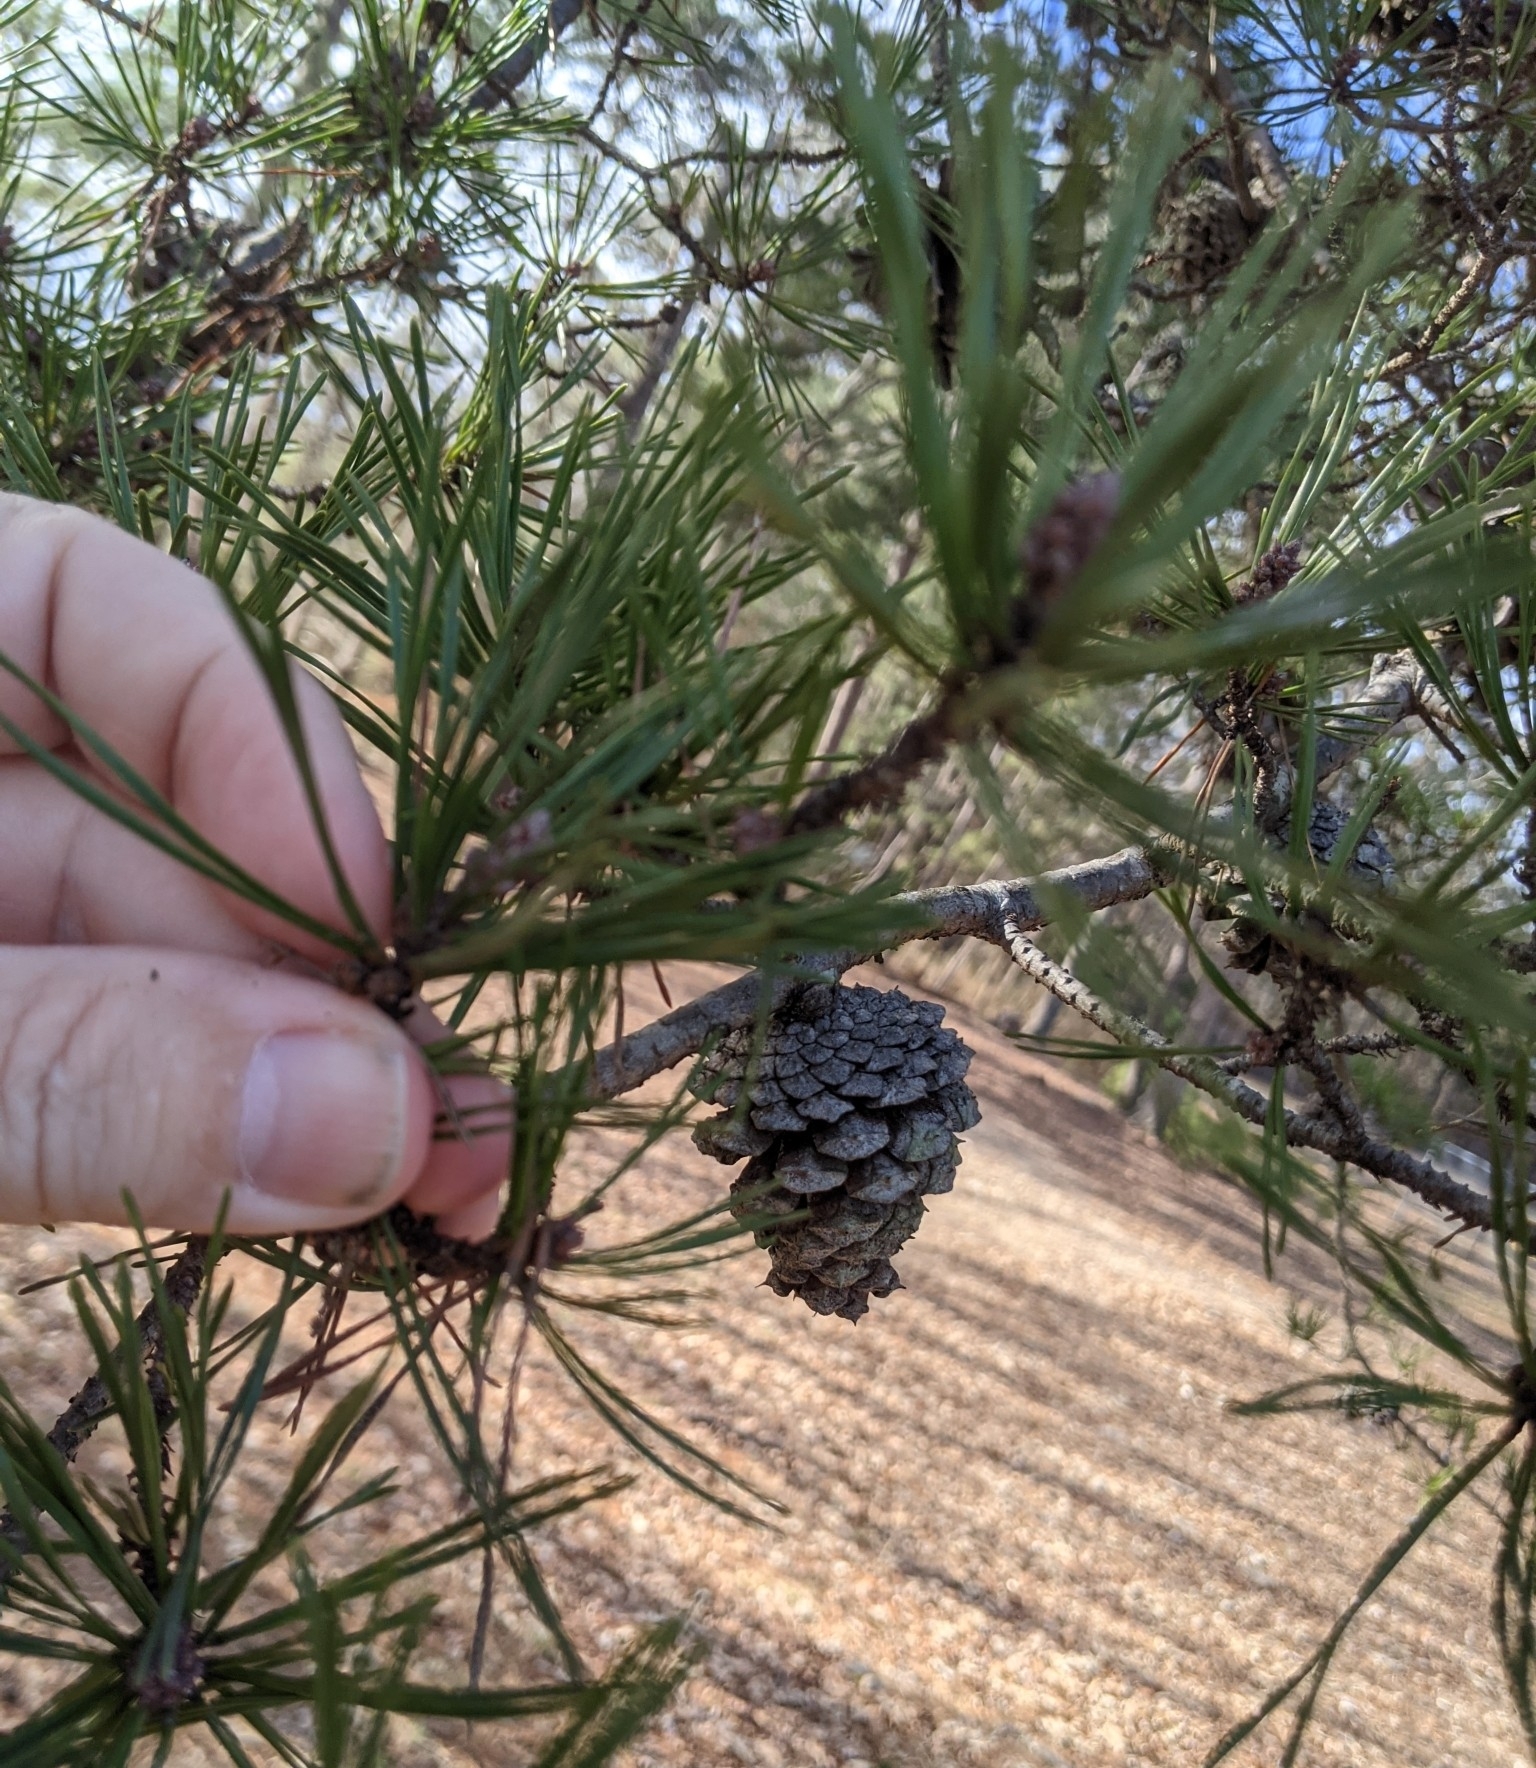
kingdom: Plantae
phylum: Tracheophyta
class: Pinopsida
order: Pinales
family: Pinaceae
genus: Pinus
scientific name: Pinus virginiana
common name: Scrub pine
